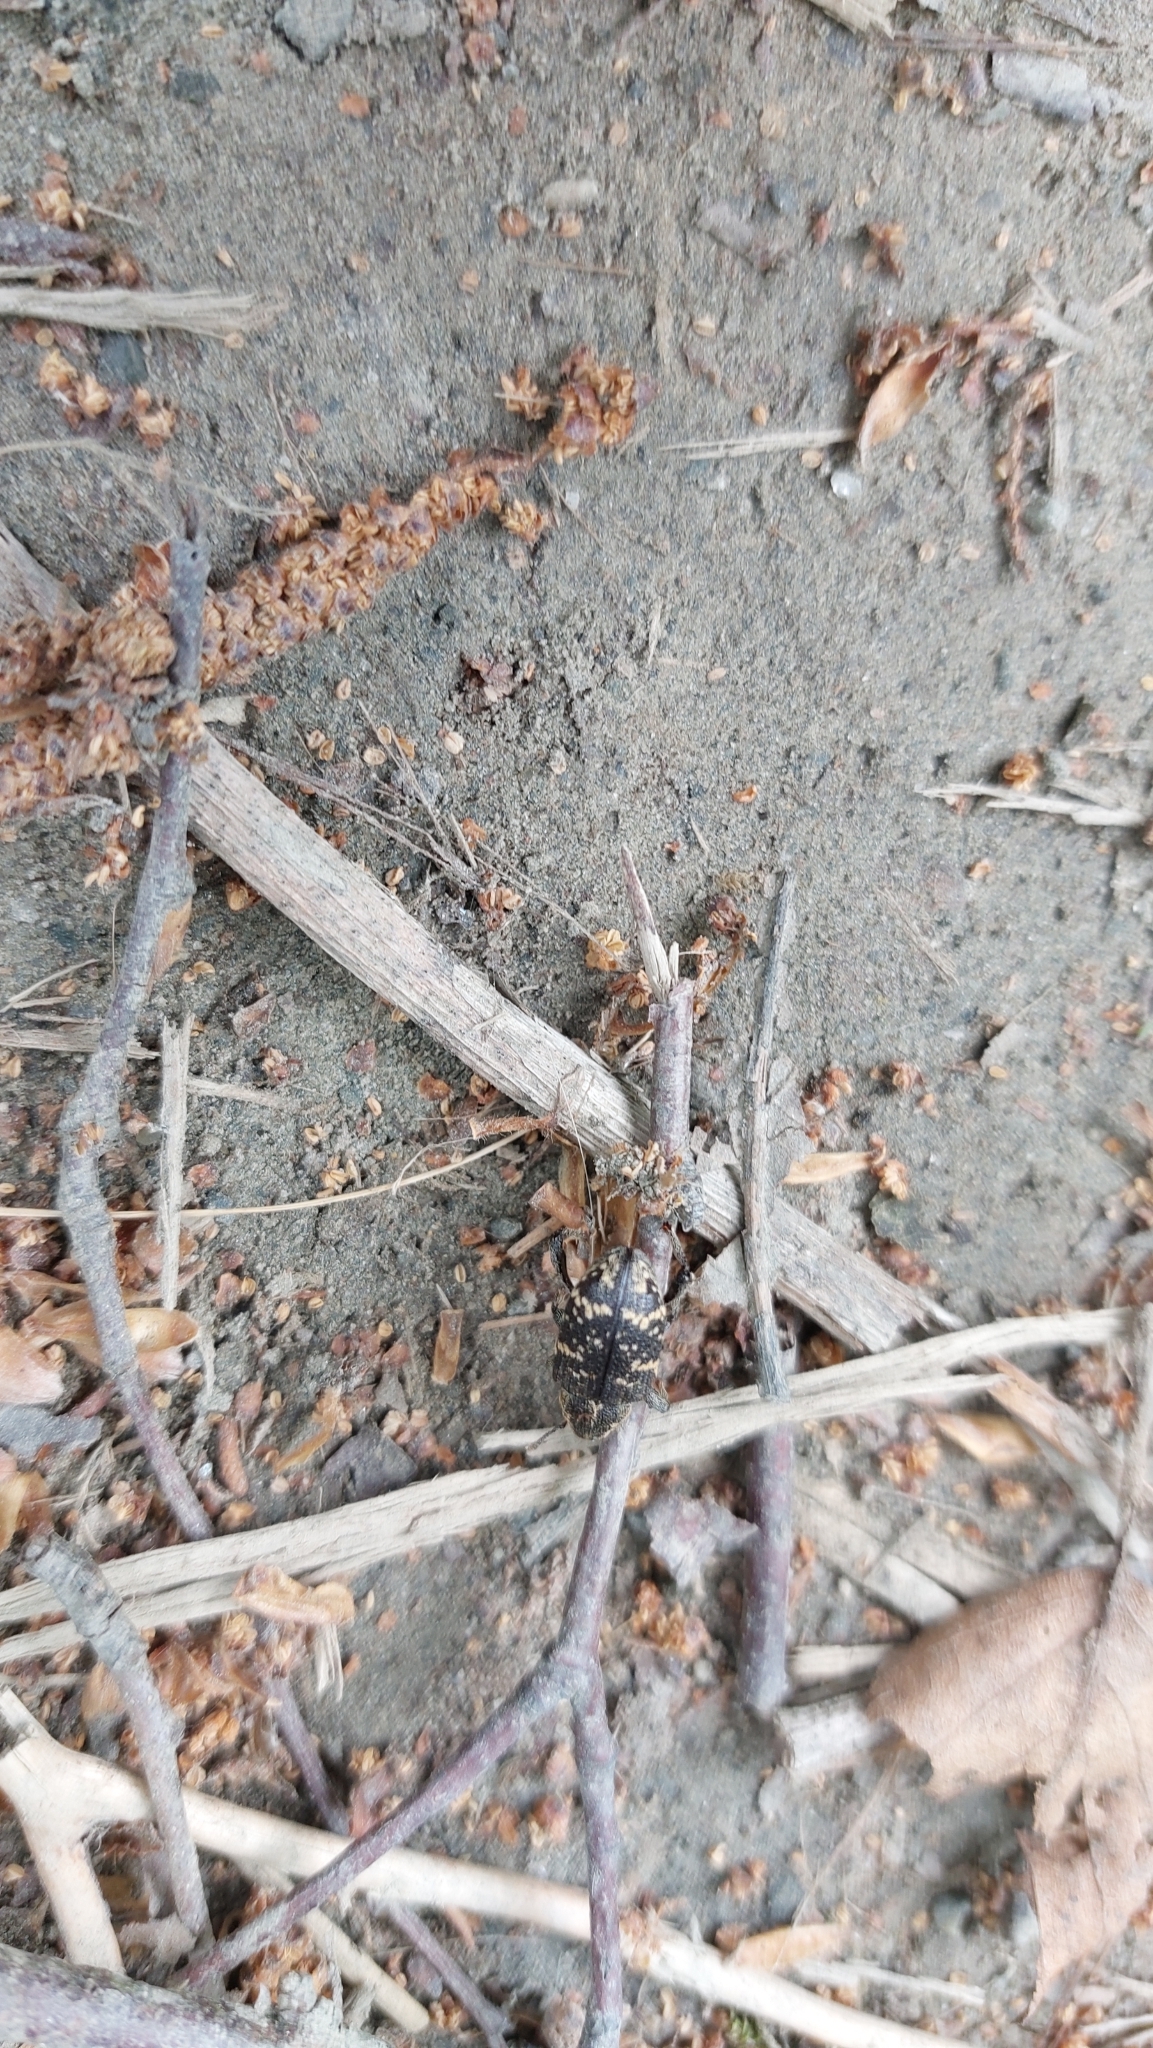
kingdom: Animalia
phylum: Arthropoda
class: Insecta
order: Coleoptera
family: Curculionidae
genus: Hylobius
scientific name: Hylobius abietis
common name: Large pine weevil
